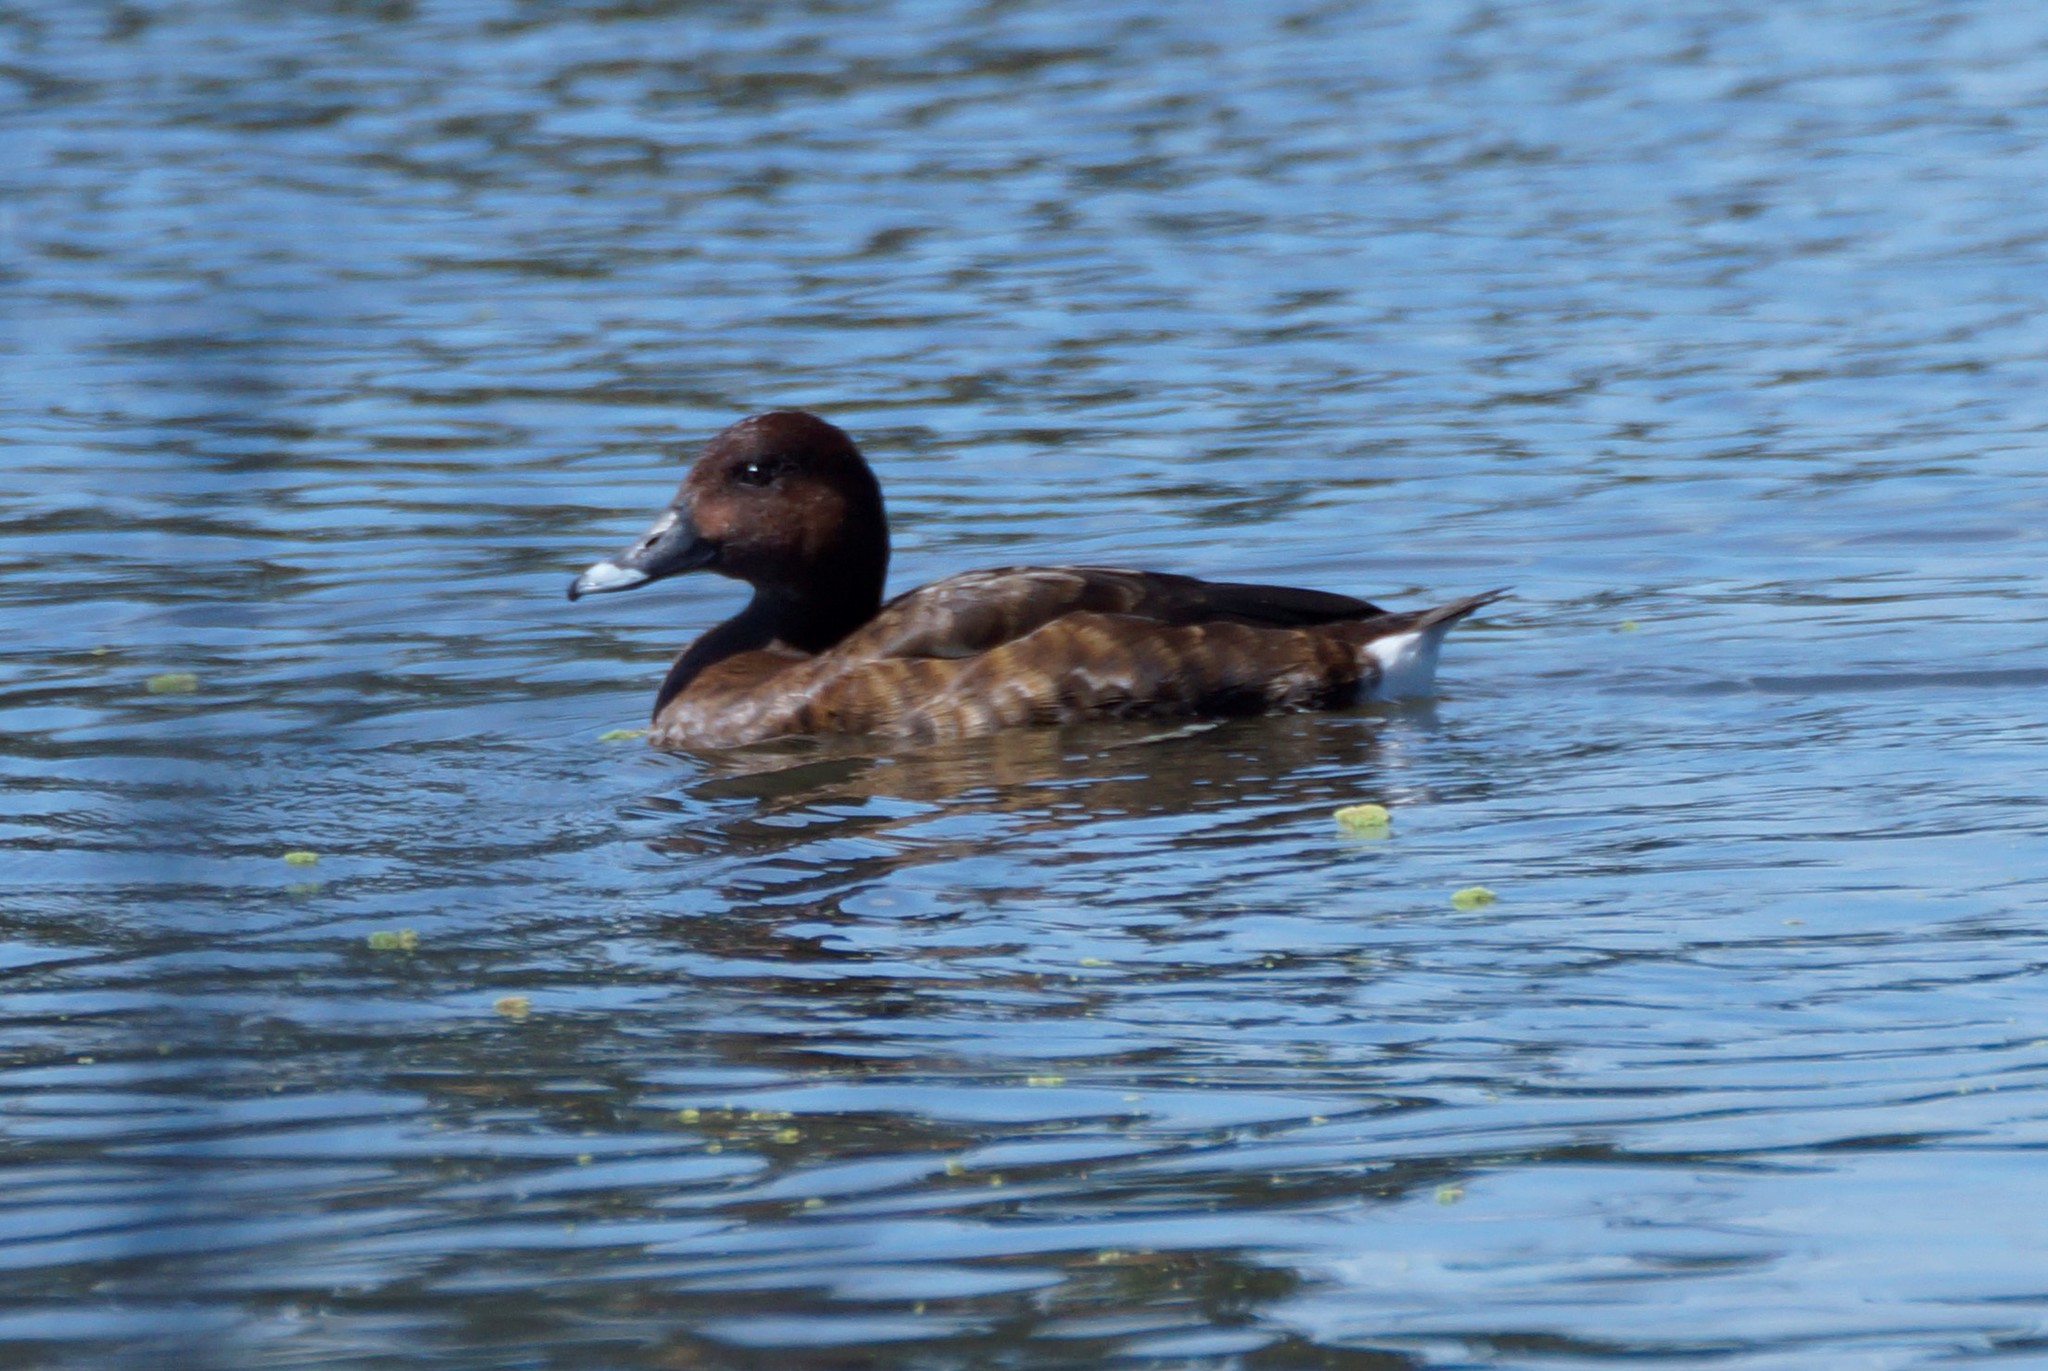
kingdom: Animalia
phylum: Chordata
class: Aves
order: Anseriformes
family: Anatidae
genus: Aythya
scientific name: Aythya australis
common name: Hardhead
